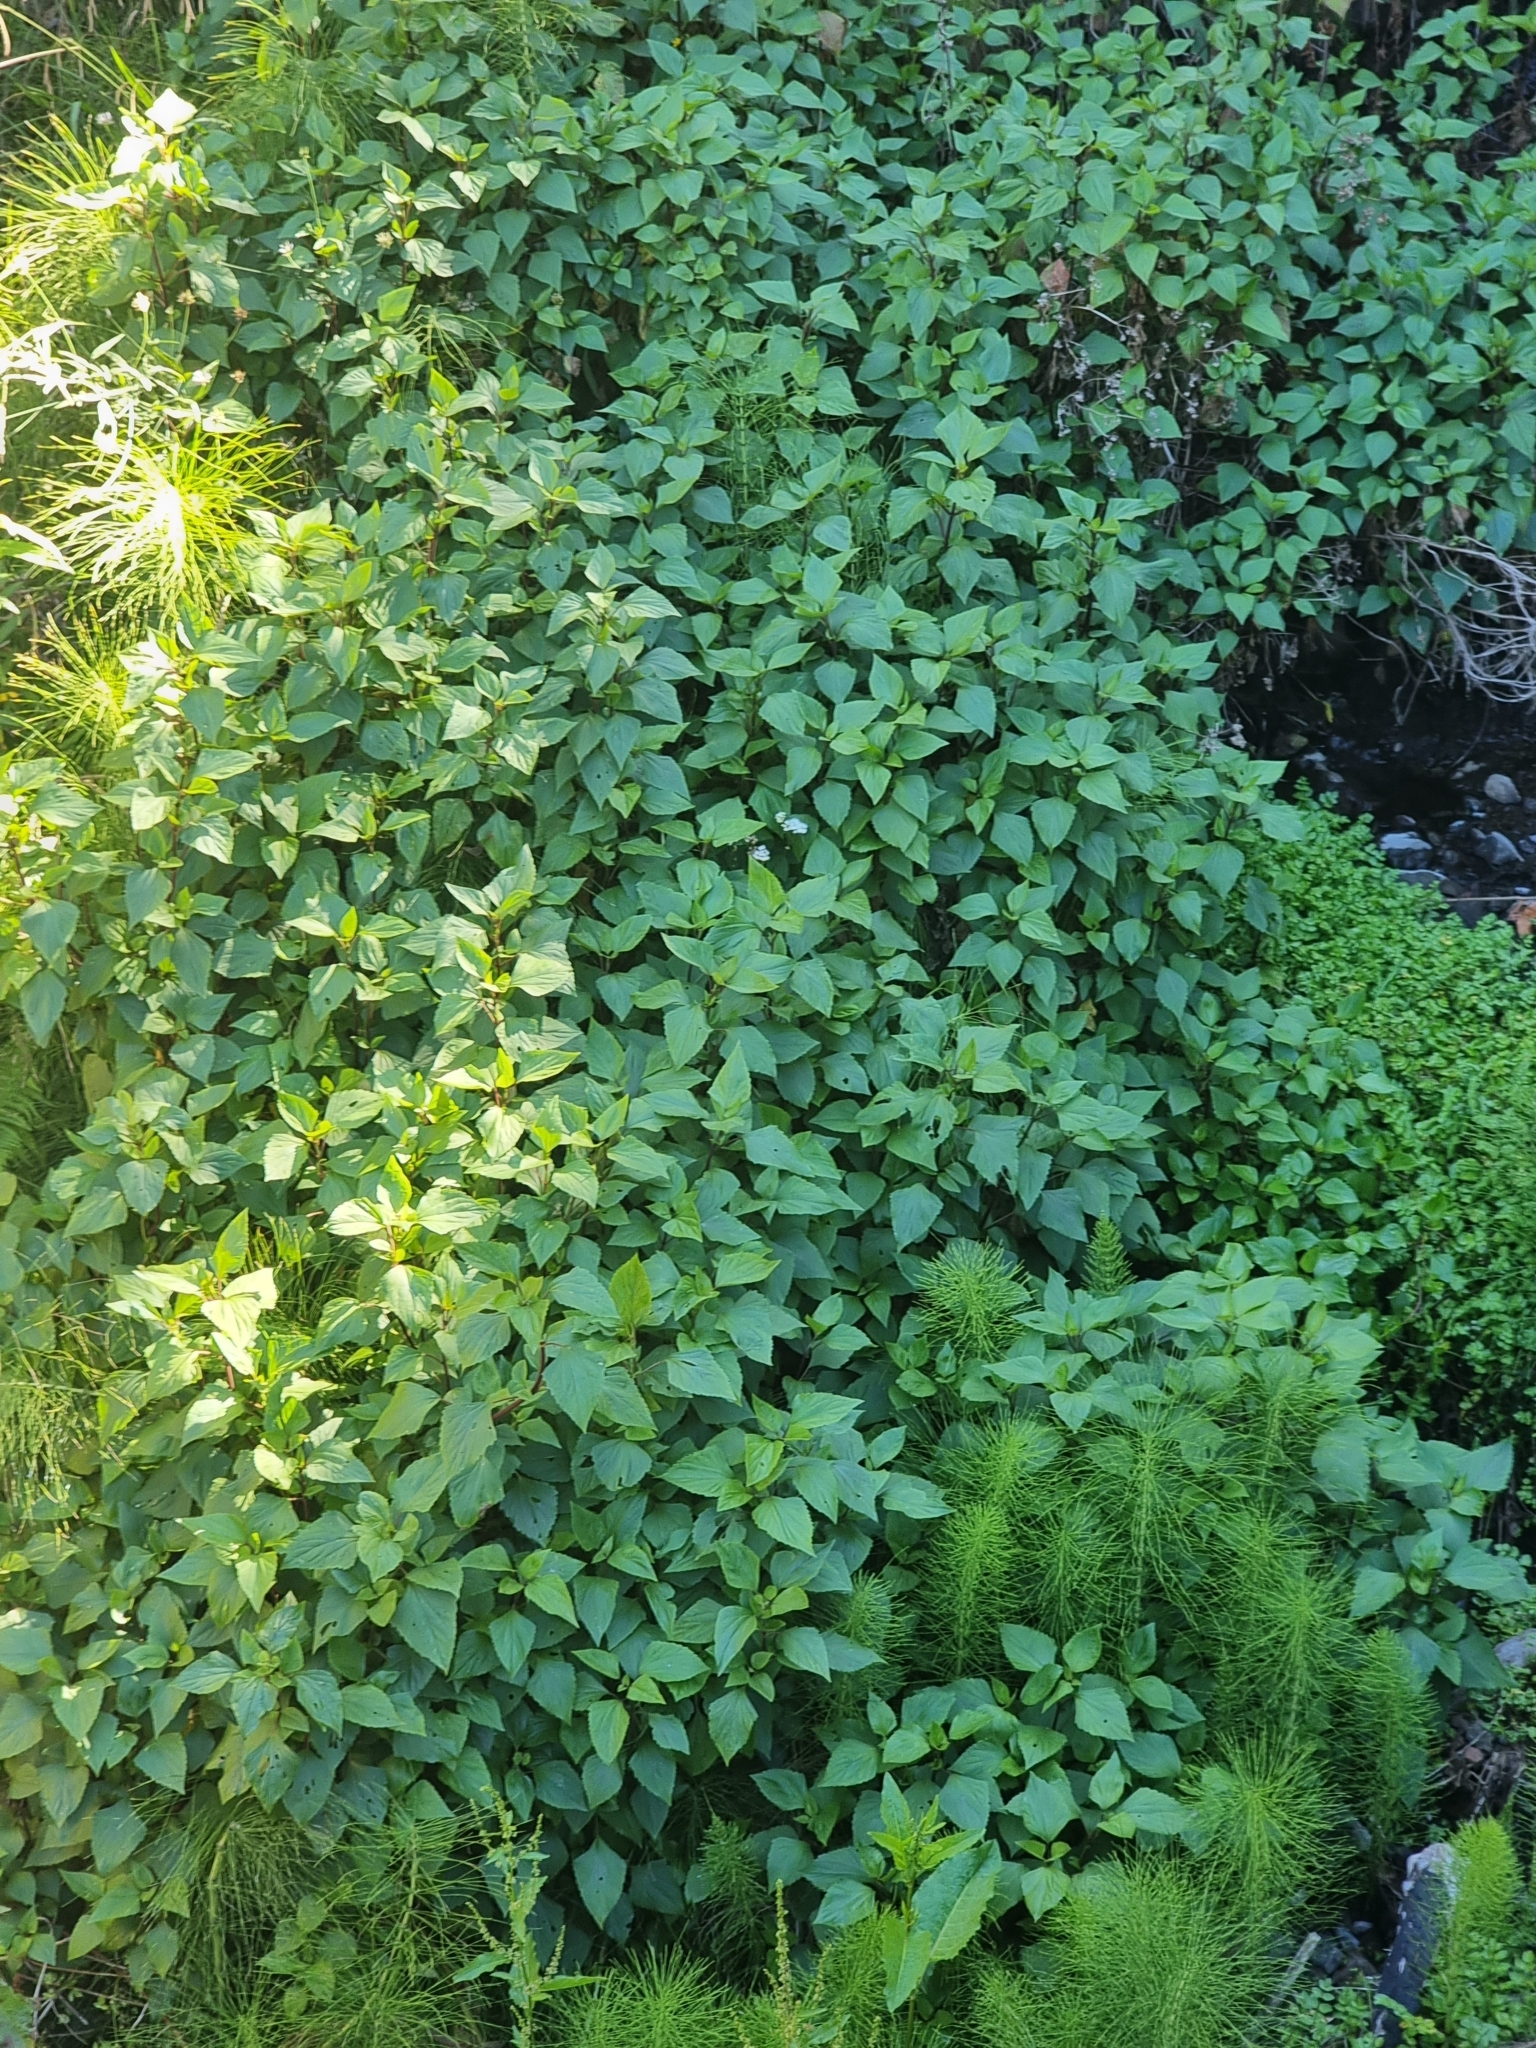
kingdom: Plantae
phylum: Tracheophyta
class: Magnoliopsida
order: Asterales
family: Asteraceae
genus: Ageratina
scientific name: Ageratina adenophora
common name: Sticky snakeroot
